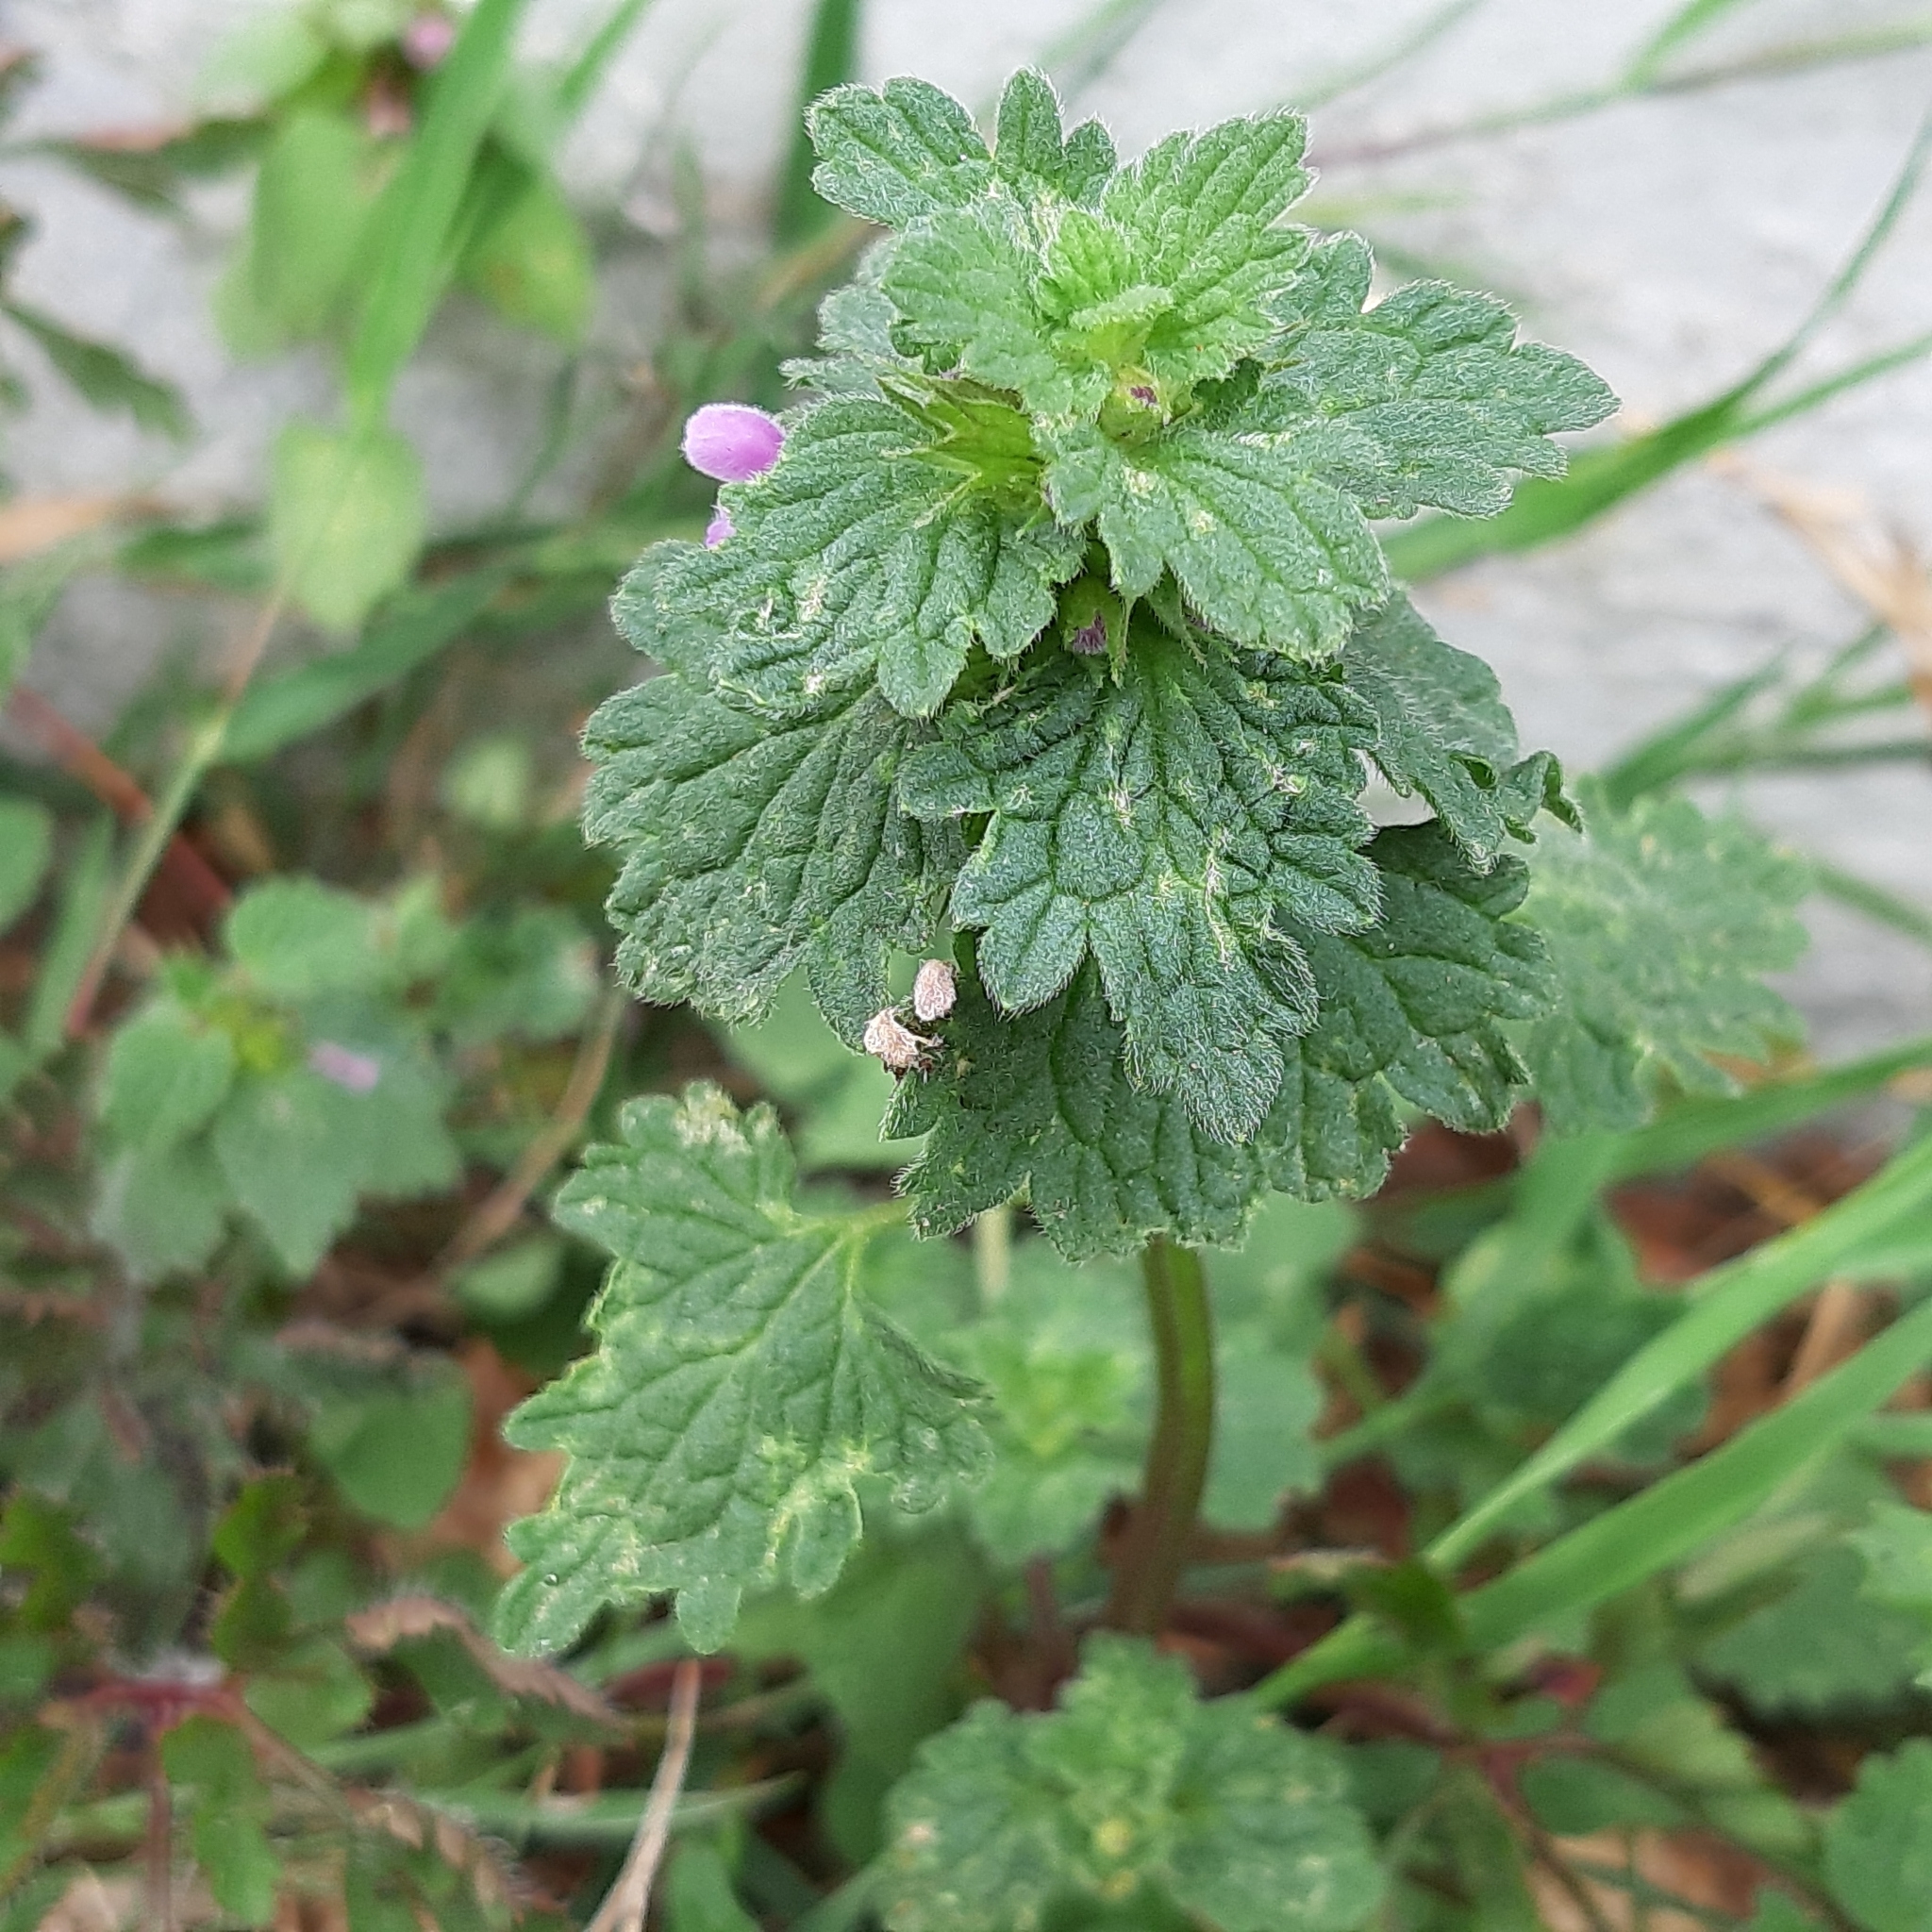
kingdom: Plantae
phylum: Tracheophyta
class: Magnoliopsida
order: Lamiales
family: Lamiaceae
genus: Lamium
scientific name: Lamium hybridum
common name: Cut-leaved dead-nettle
